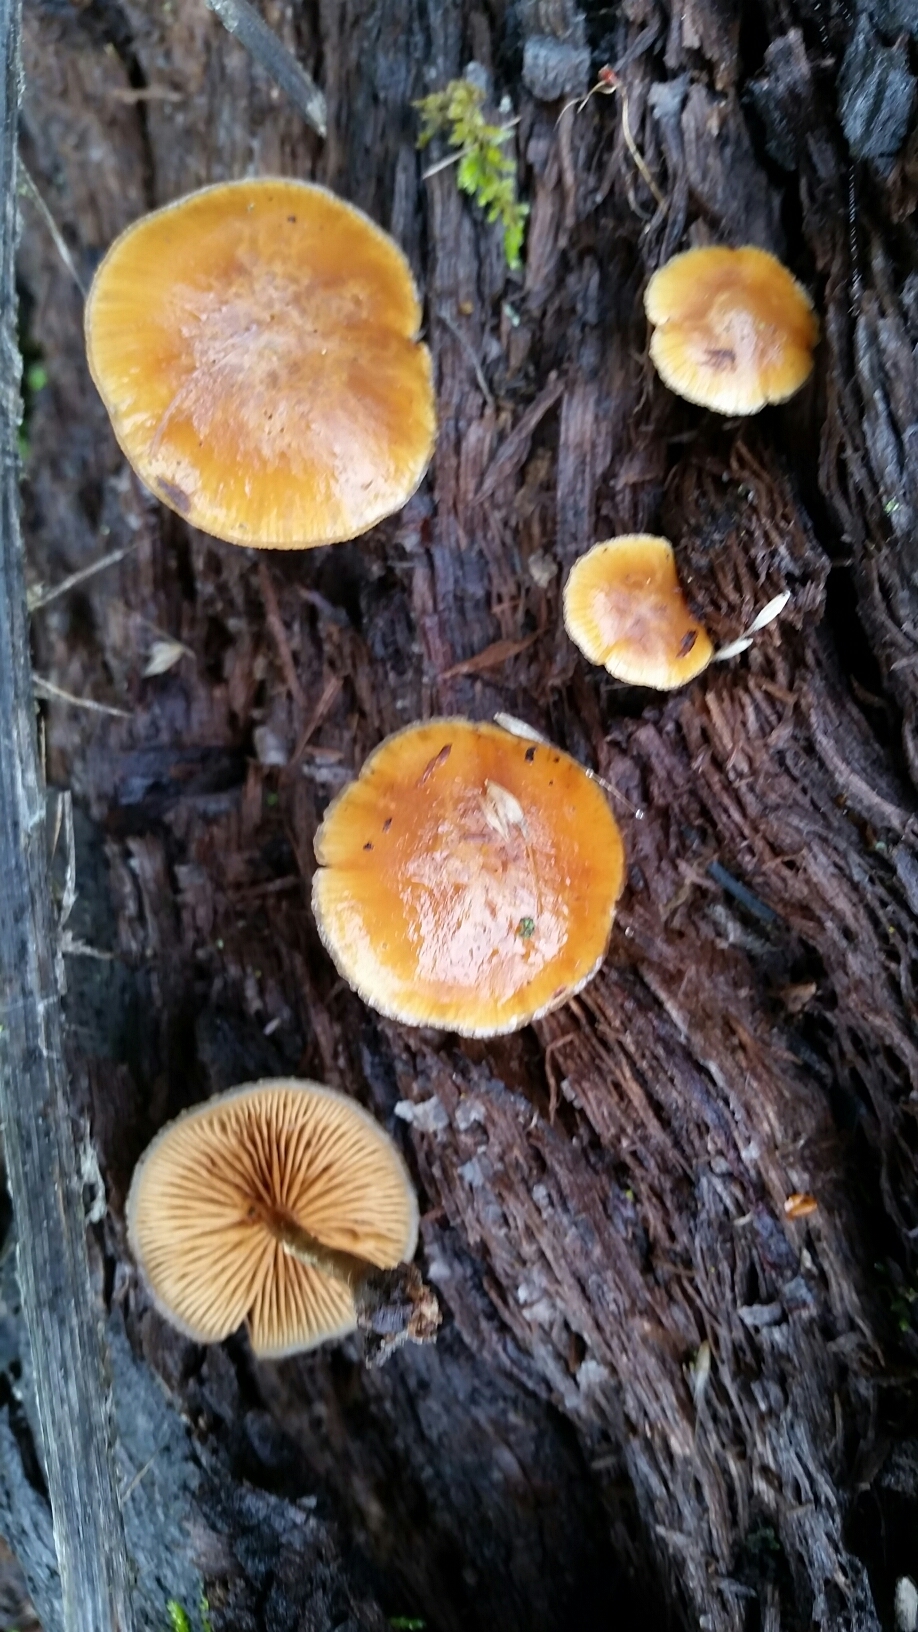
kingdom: Fungi
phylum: Basidiomycota
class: Agaricomycetes
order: Agaricales
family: Hymenogastraceae
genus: Galerina
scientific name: Galerina marginata
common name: Funeral bell
